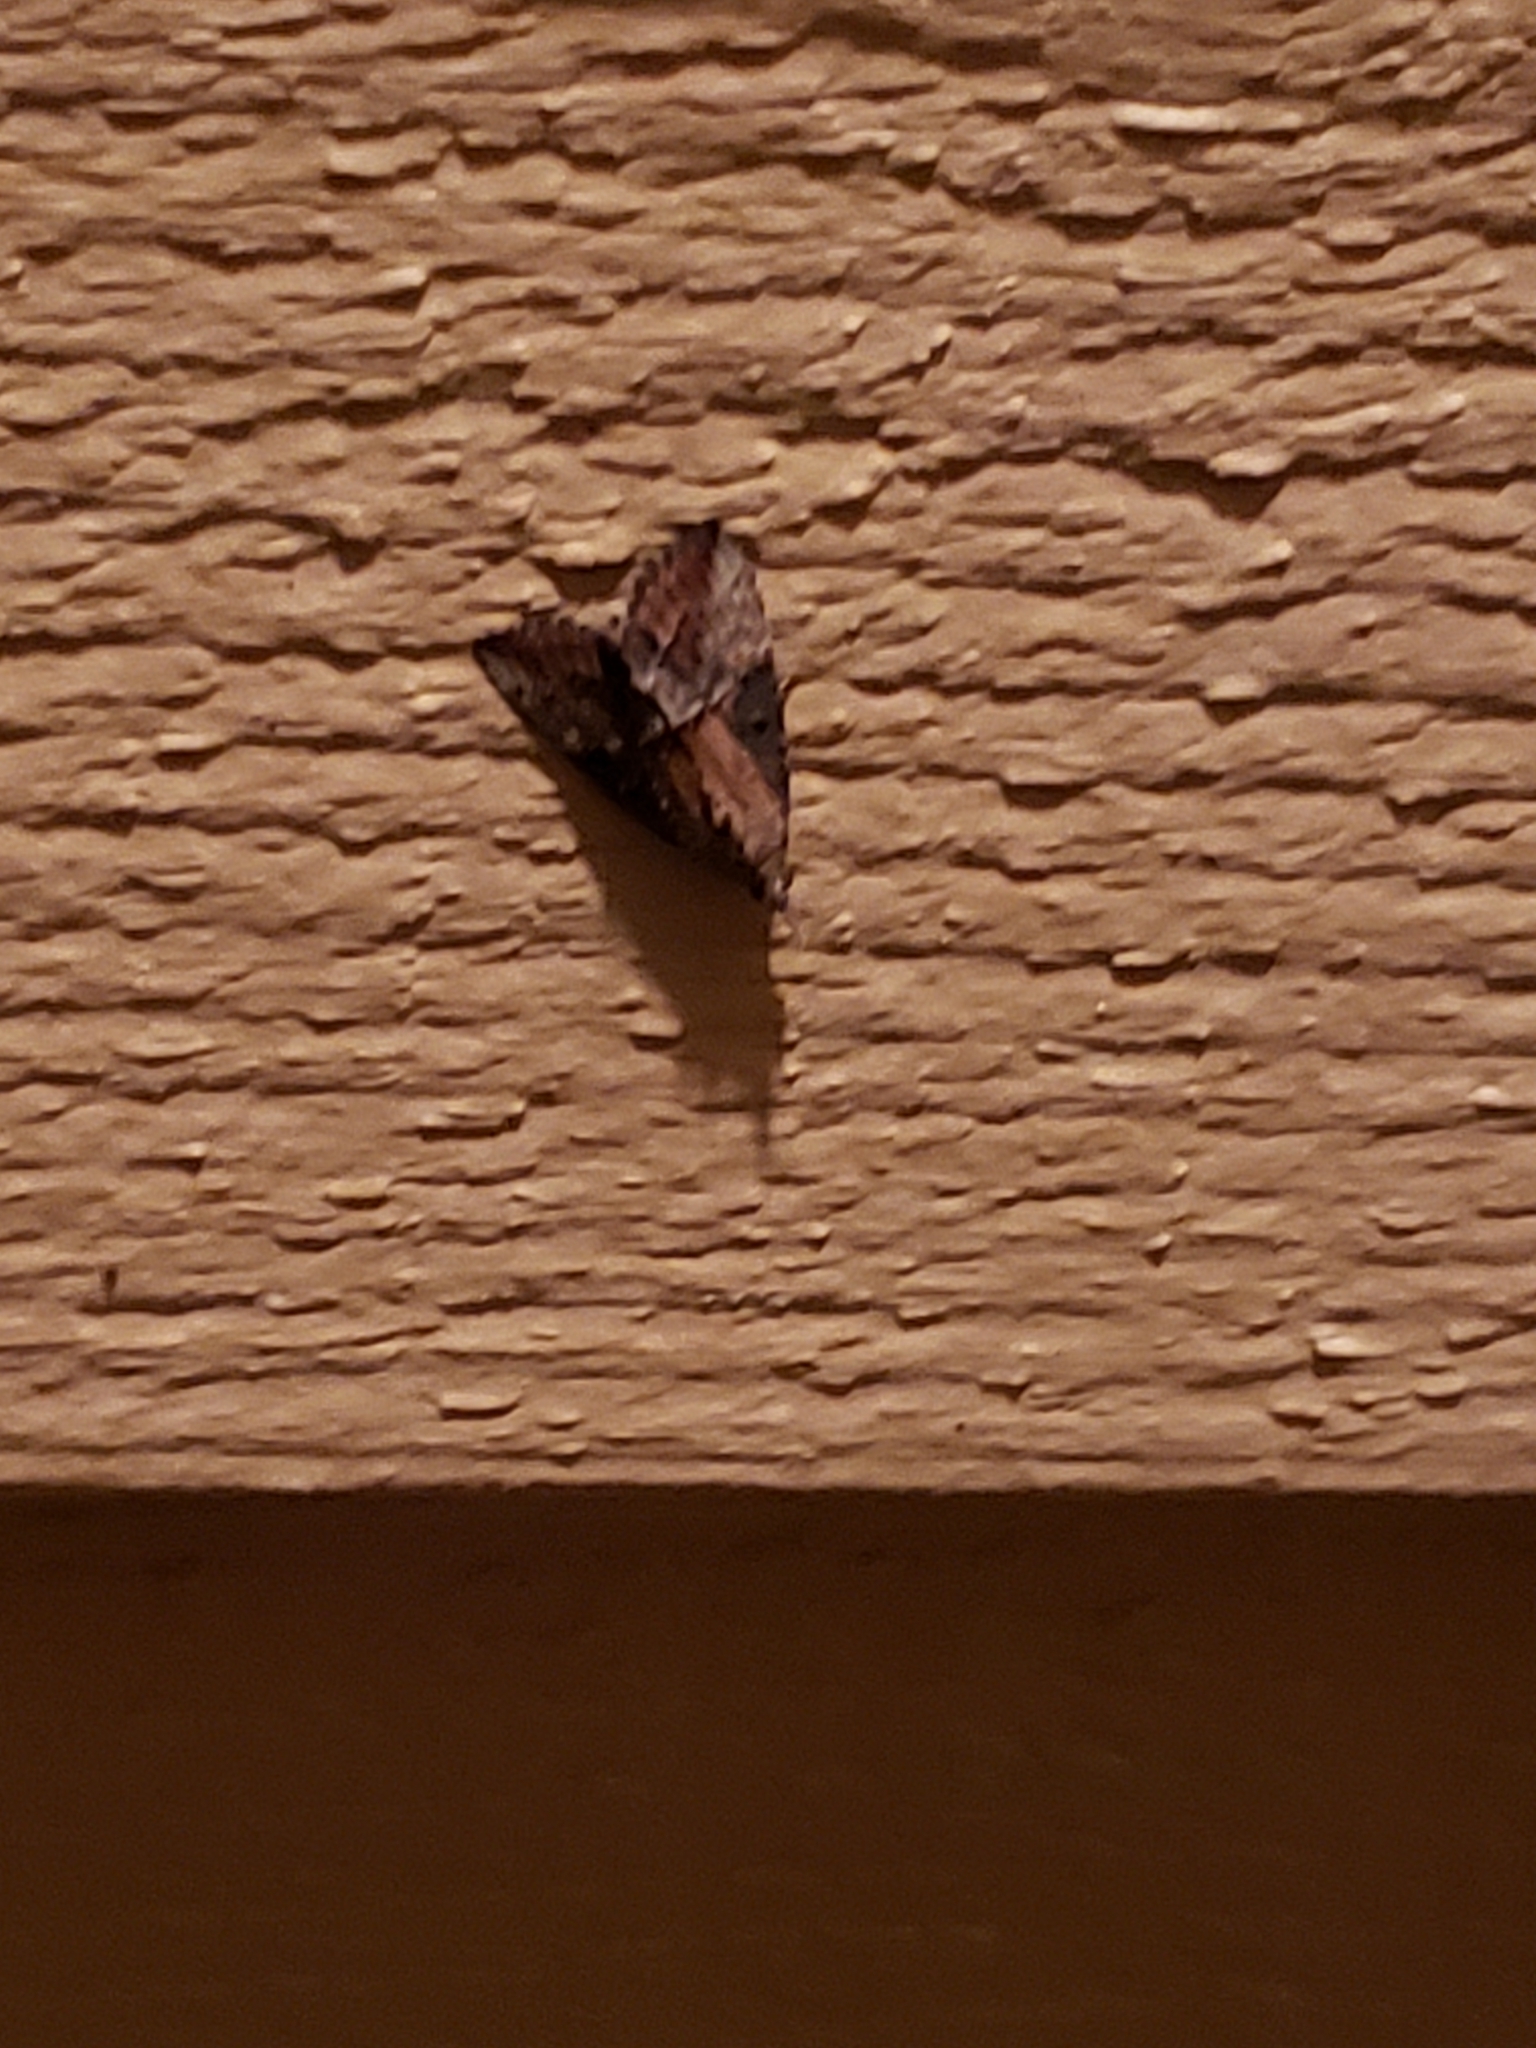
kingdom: Animalia
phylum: Arthropoda
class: Insecta
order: Lepidoptera
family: Erebidae
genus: Hypena
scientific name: Hypena scabra
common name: Green cloverworm
